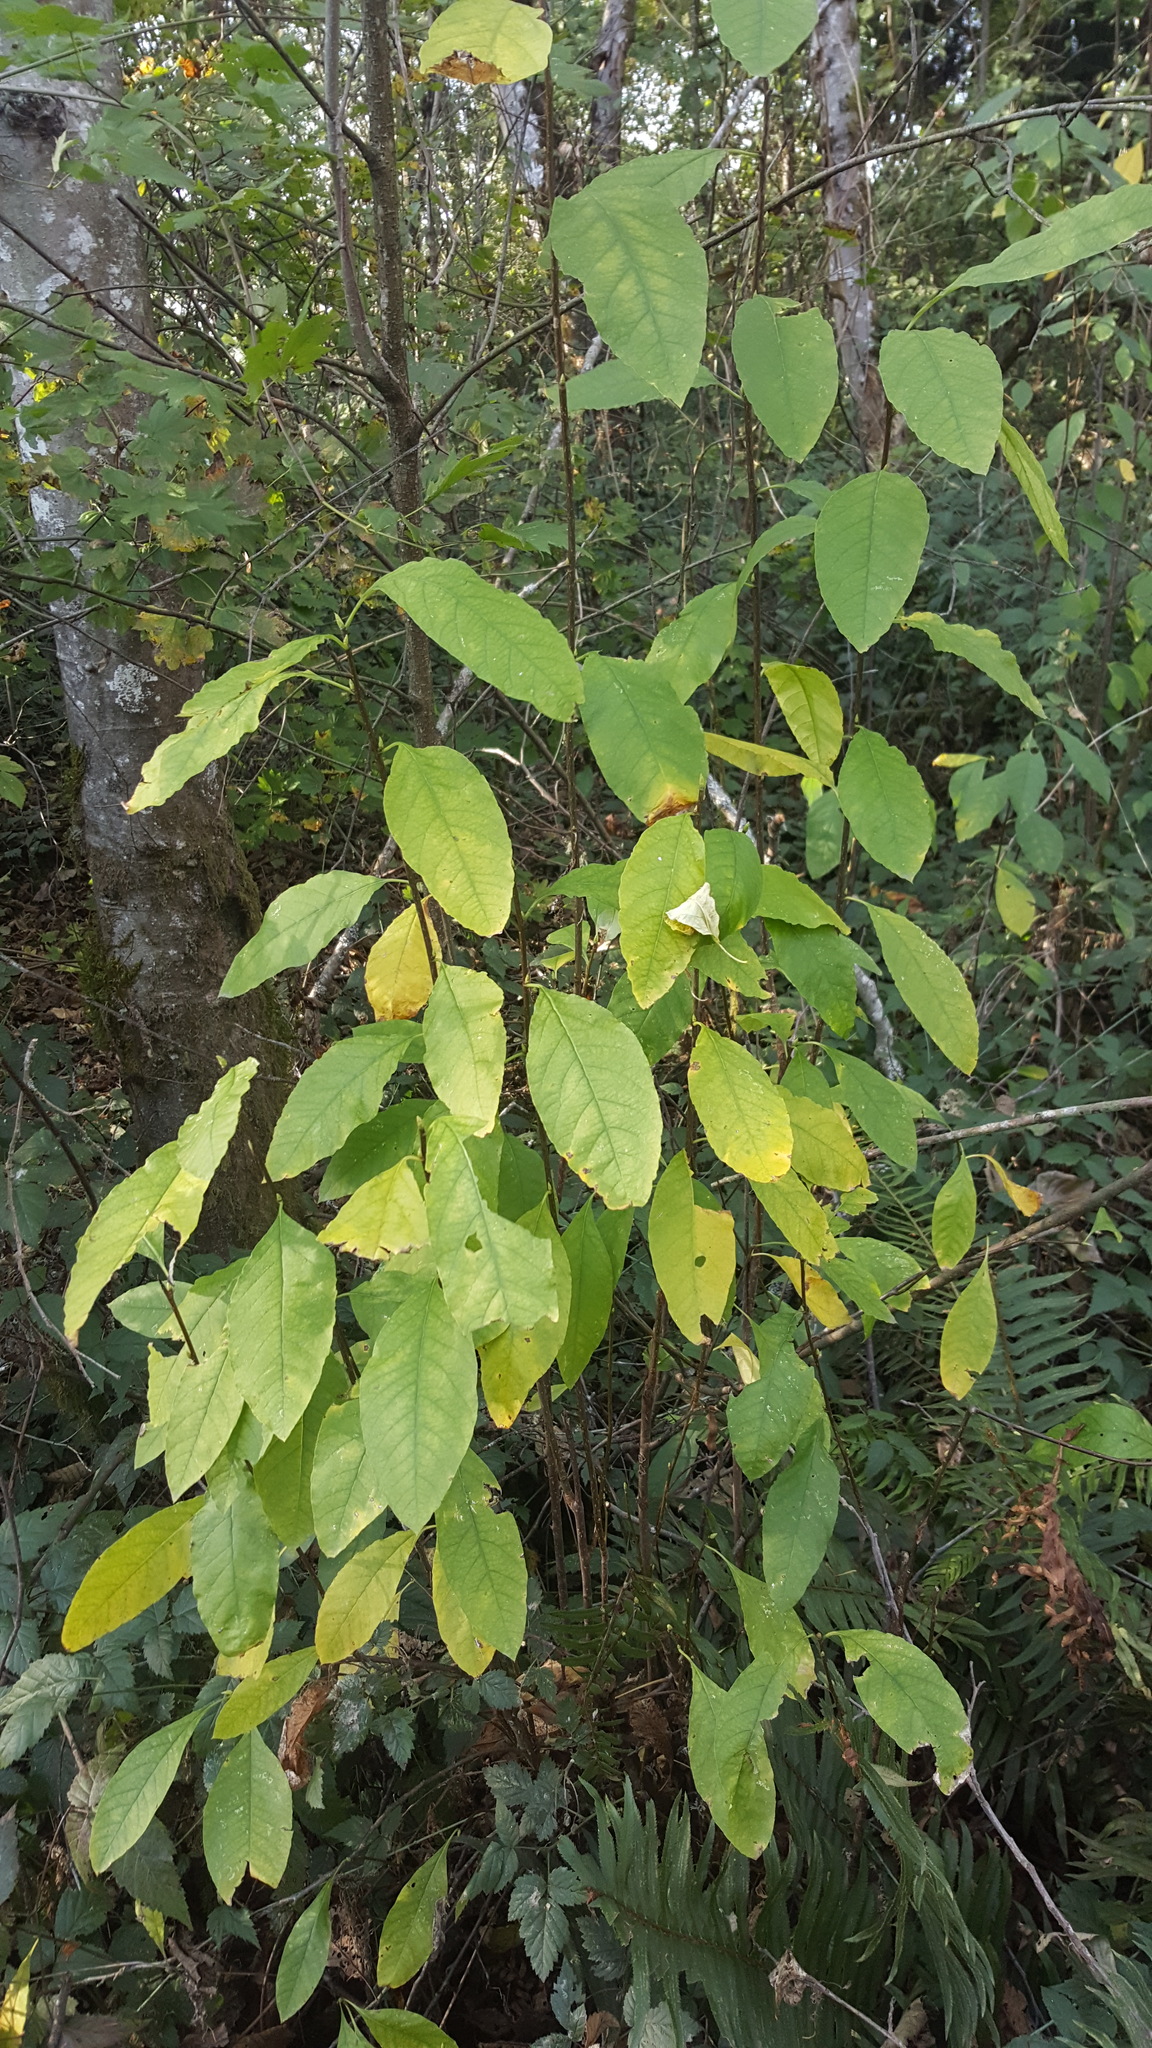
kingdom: Plantae
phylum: Tracheophyta
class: Magnoliopsida
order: Rosales
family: Rosaceae
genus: Oemleria
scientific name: Oemleria cerasiformis
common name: Osoberry
